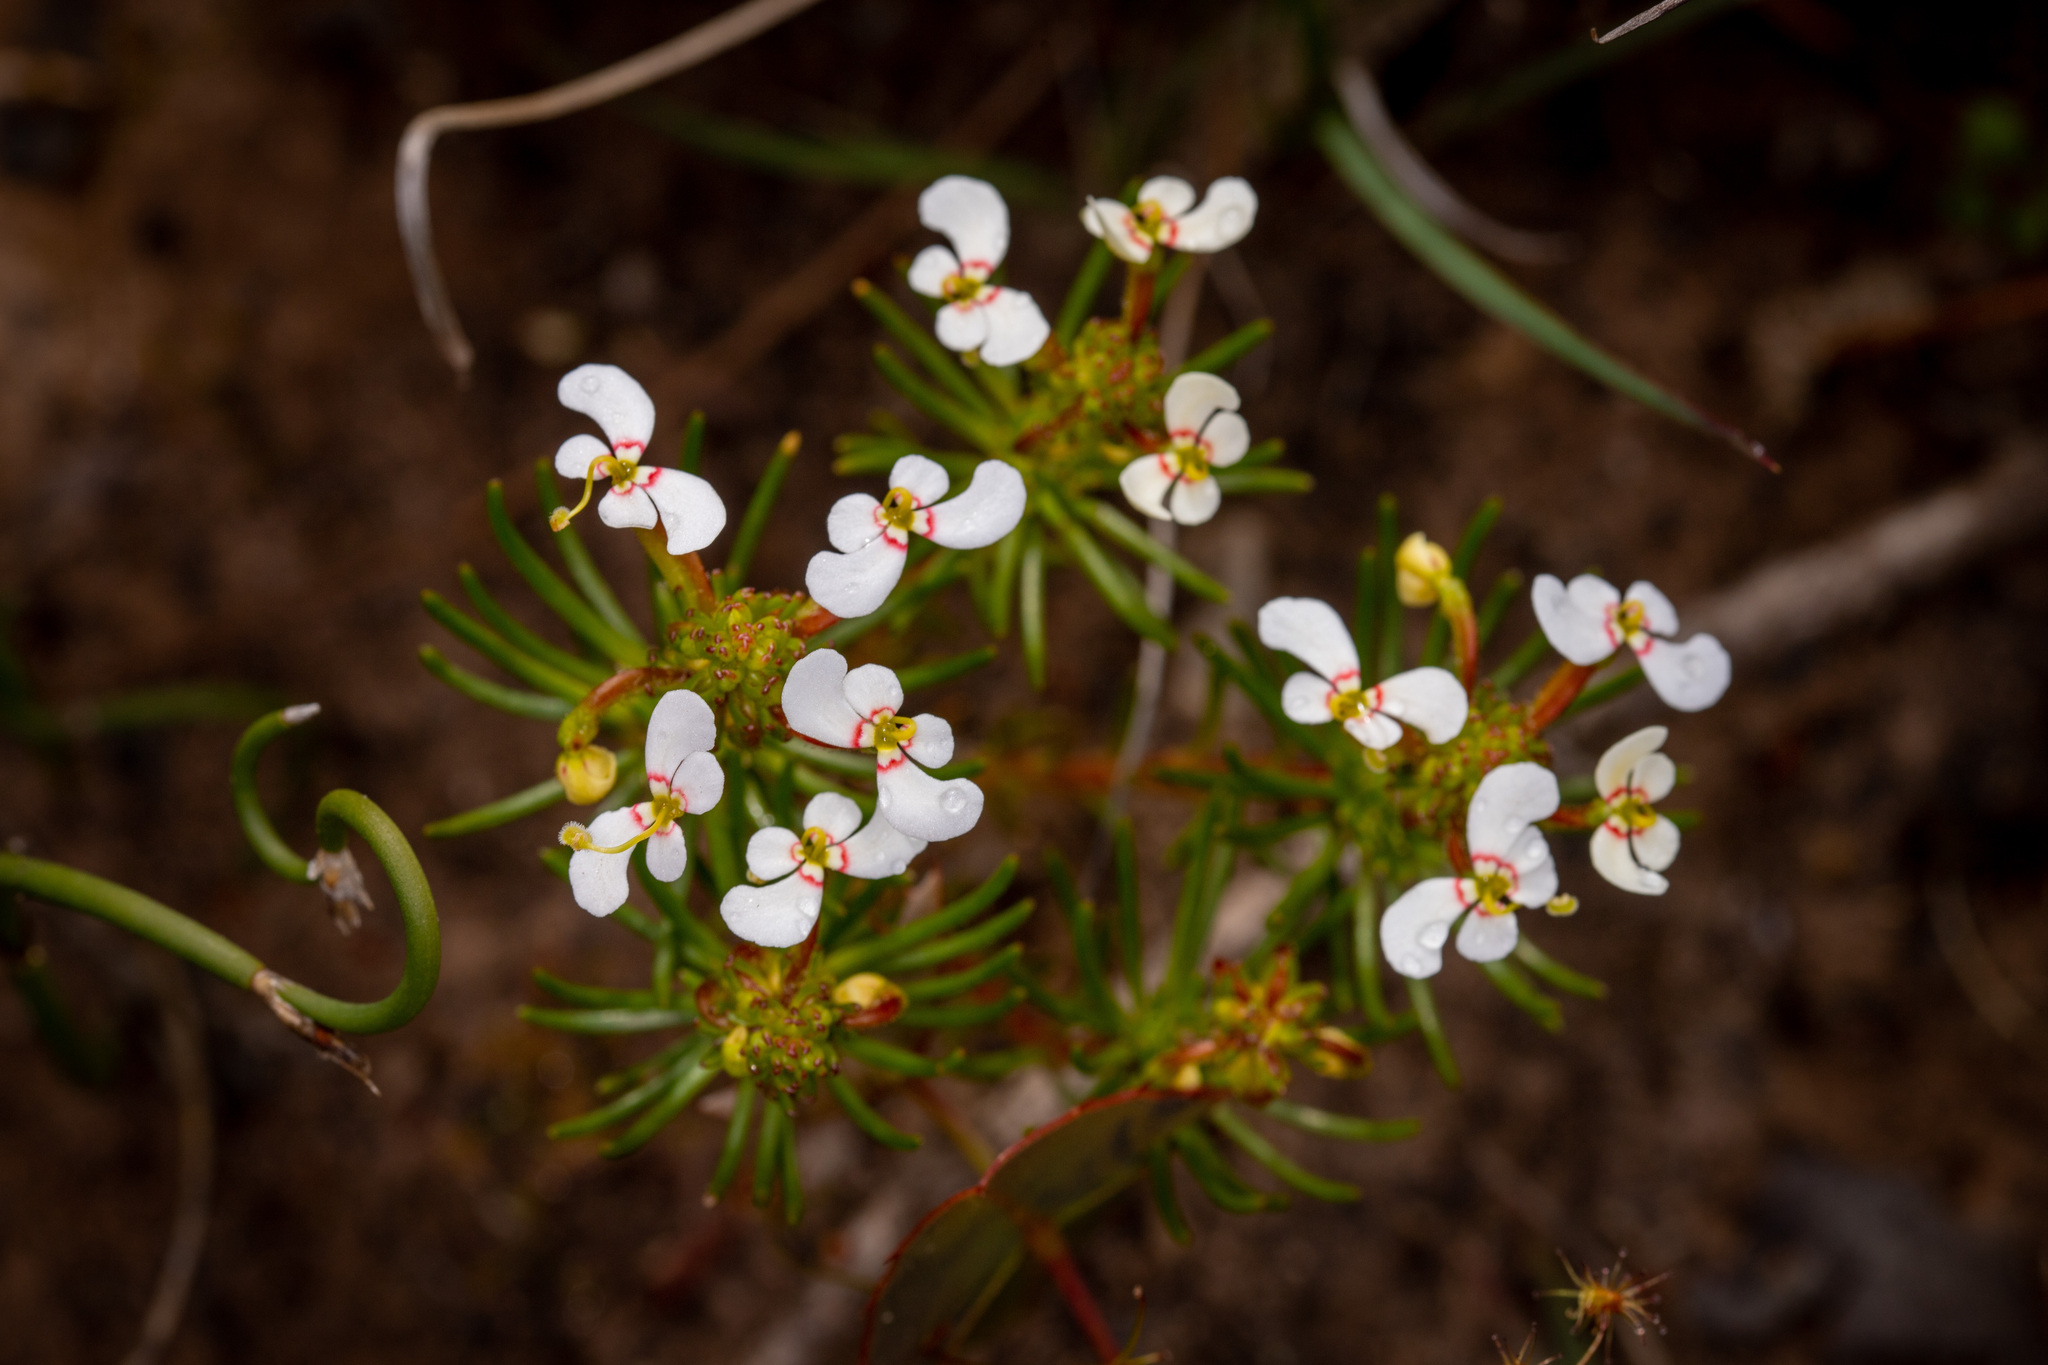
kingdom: Plantae
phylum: Tracheophyta
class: Magnoliopsida
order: Asterales
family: Stylidiaceae
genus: Stylidium
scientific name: Stylidium breviscapum
